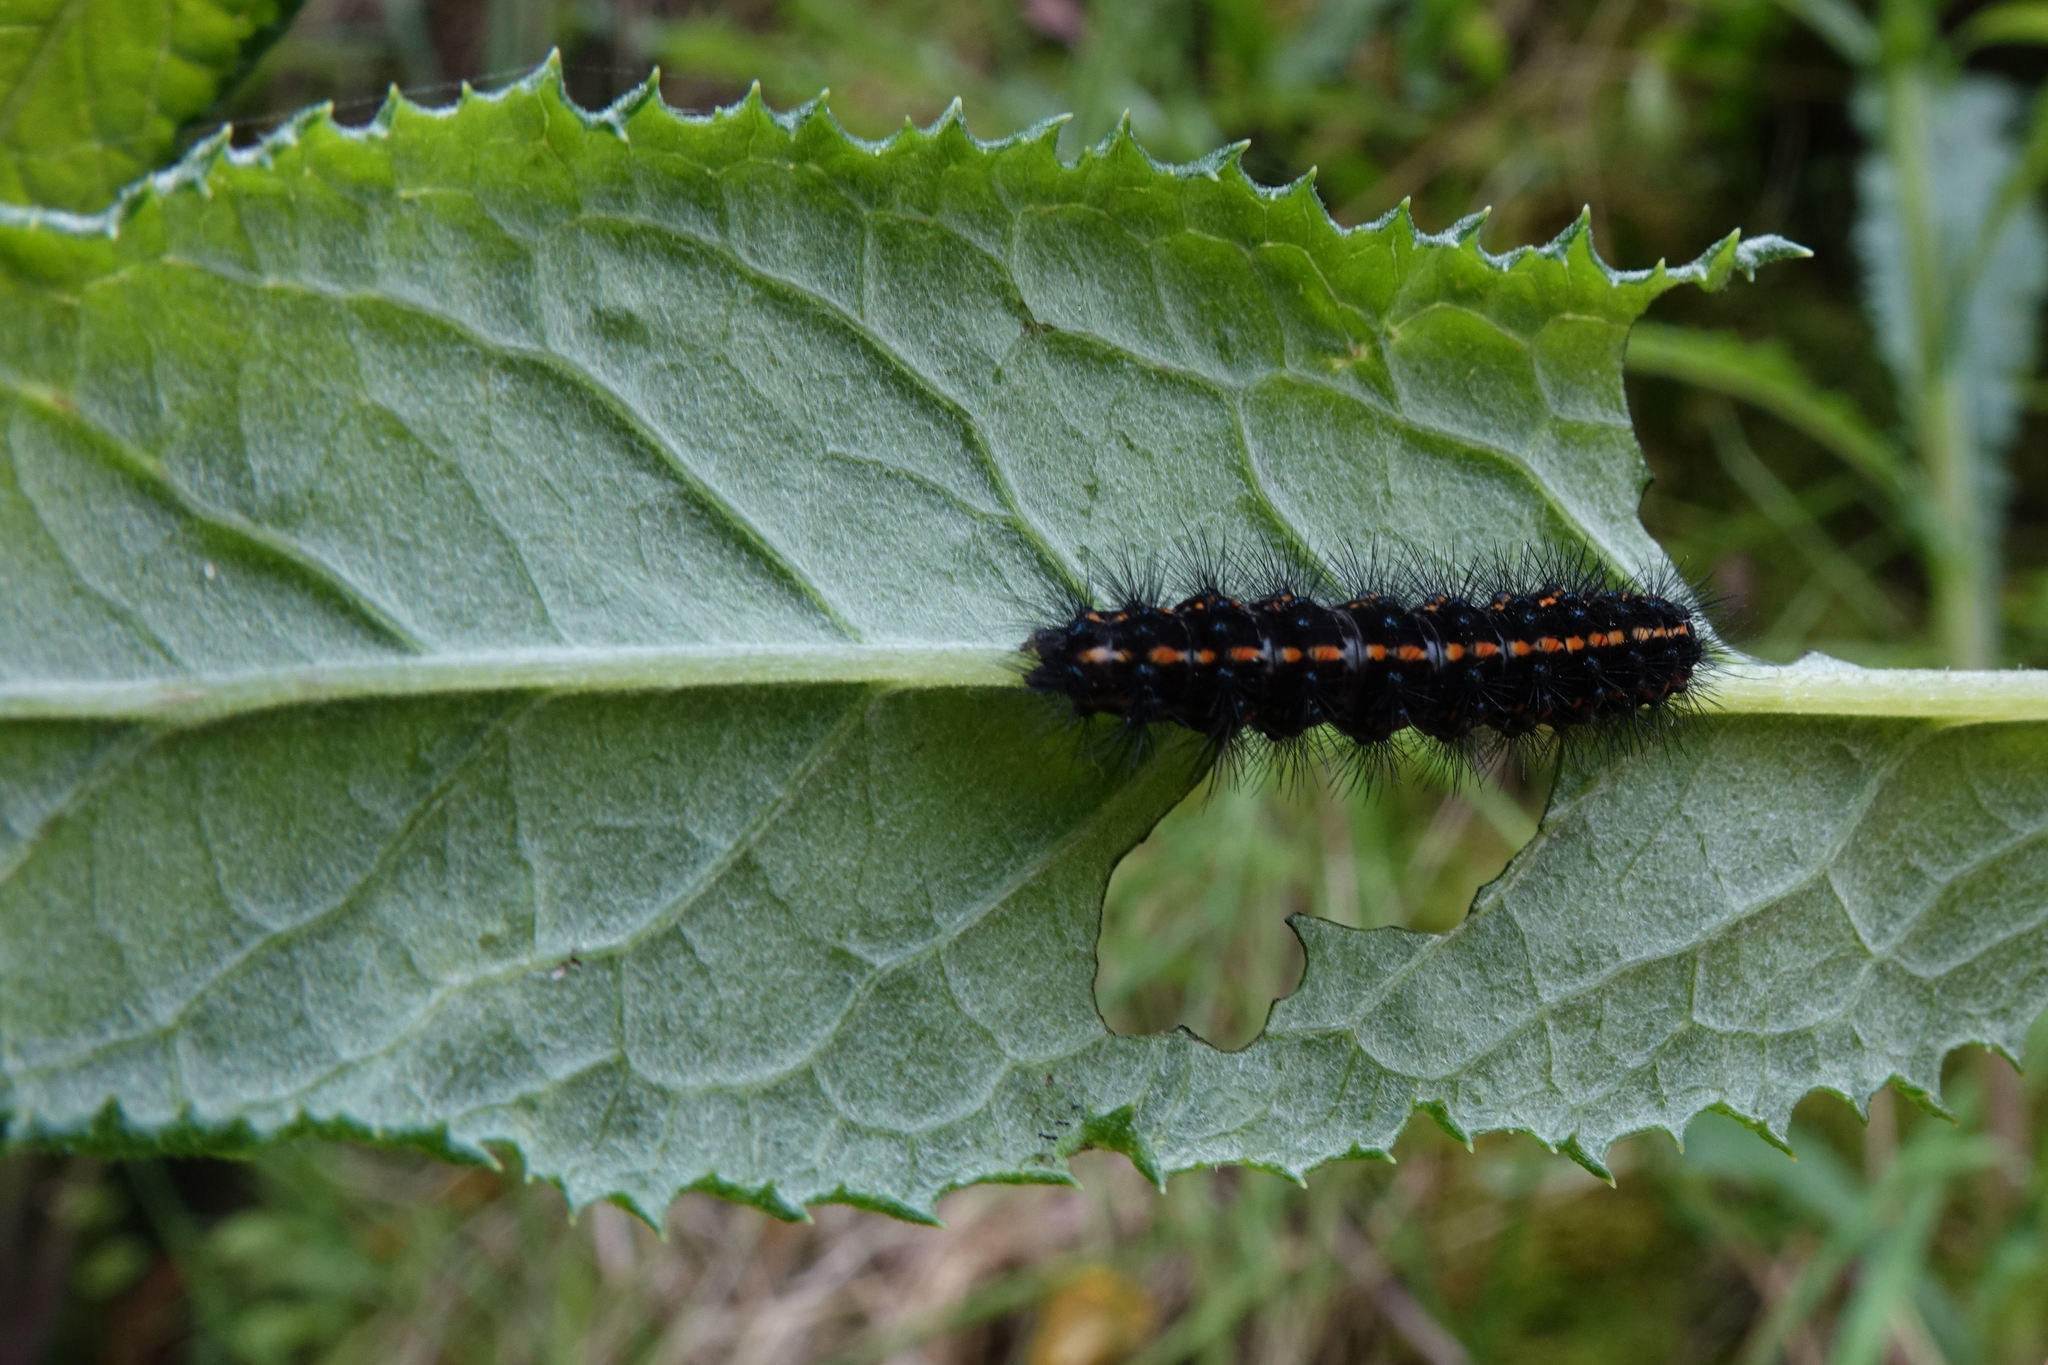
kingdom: Animalia
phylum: Arthropoda
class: Insecta
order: Lepidoptera
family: Erebidae
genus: Nyctemera
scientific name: Nyctemera annulatum
